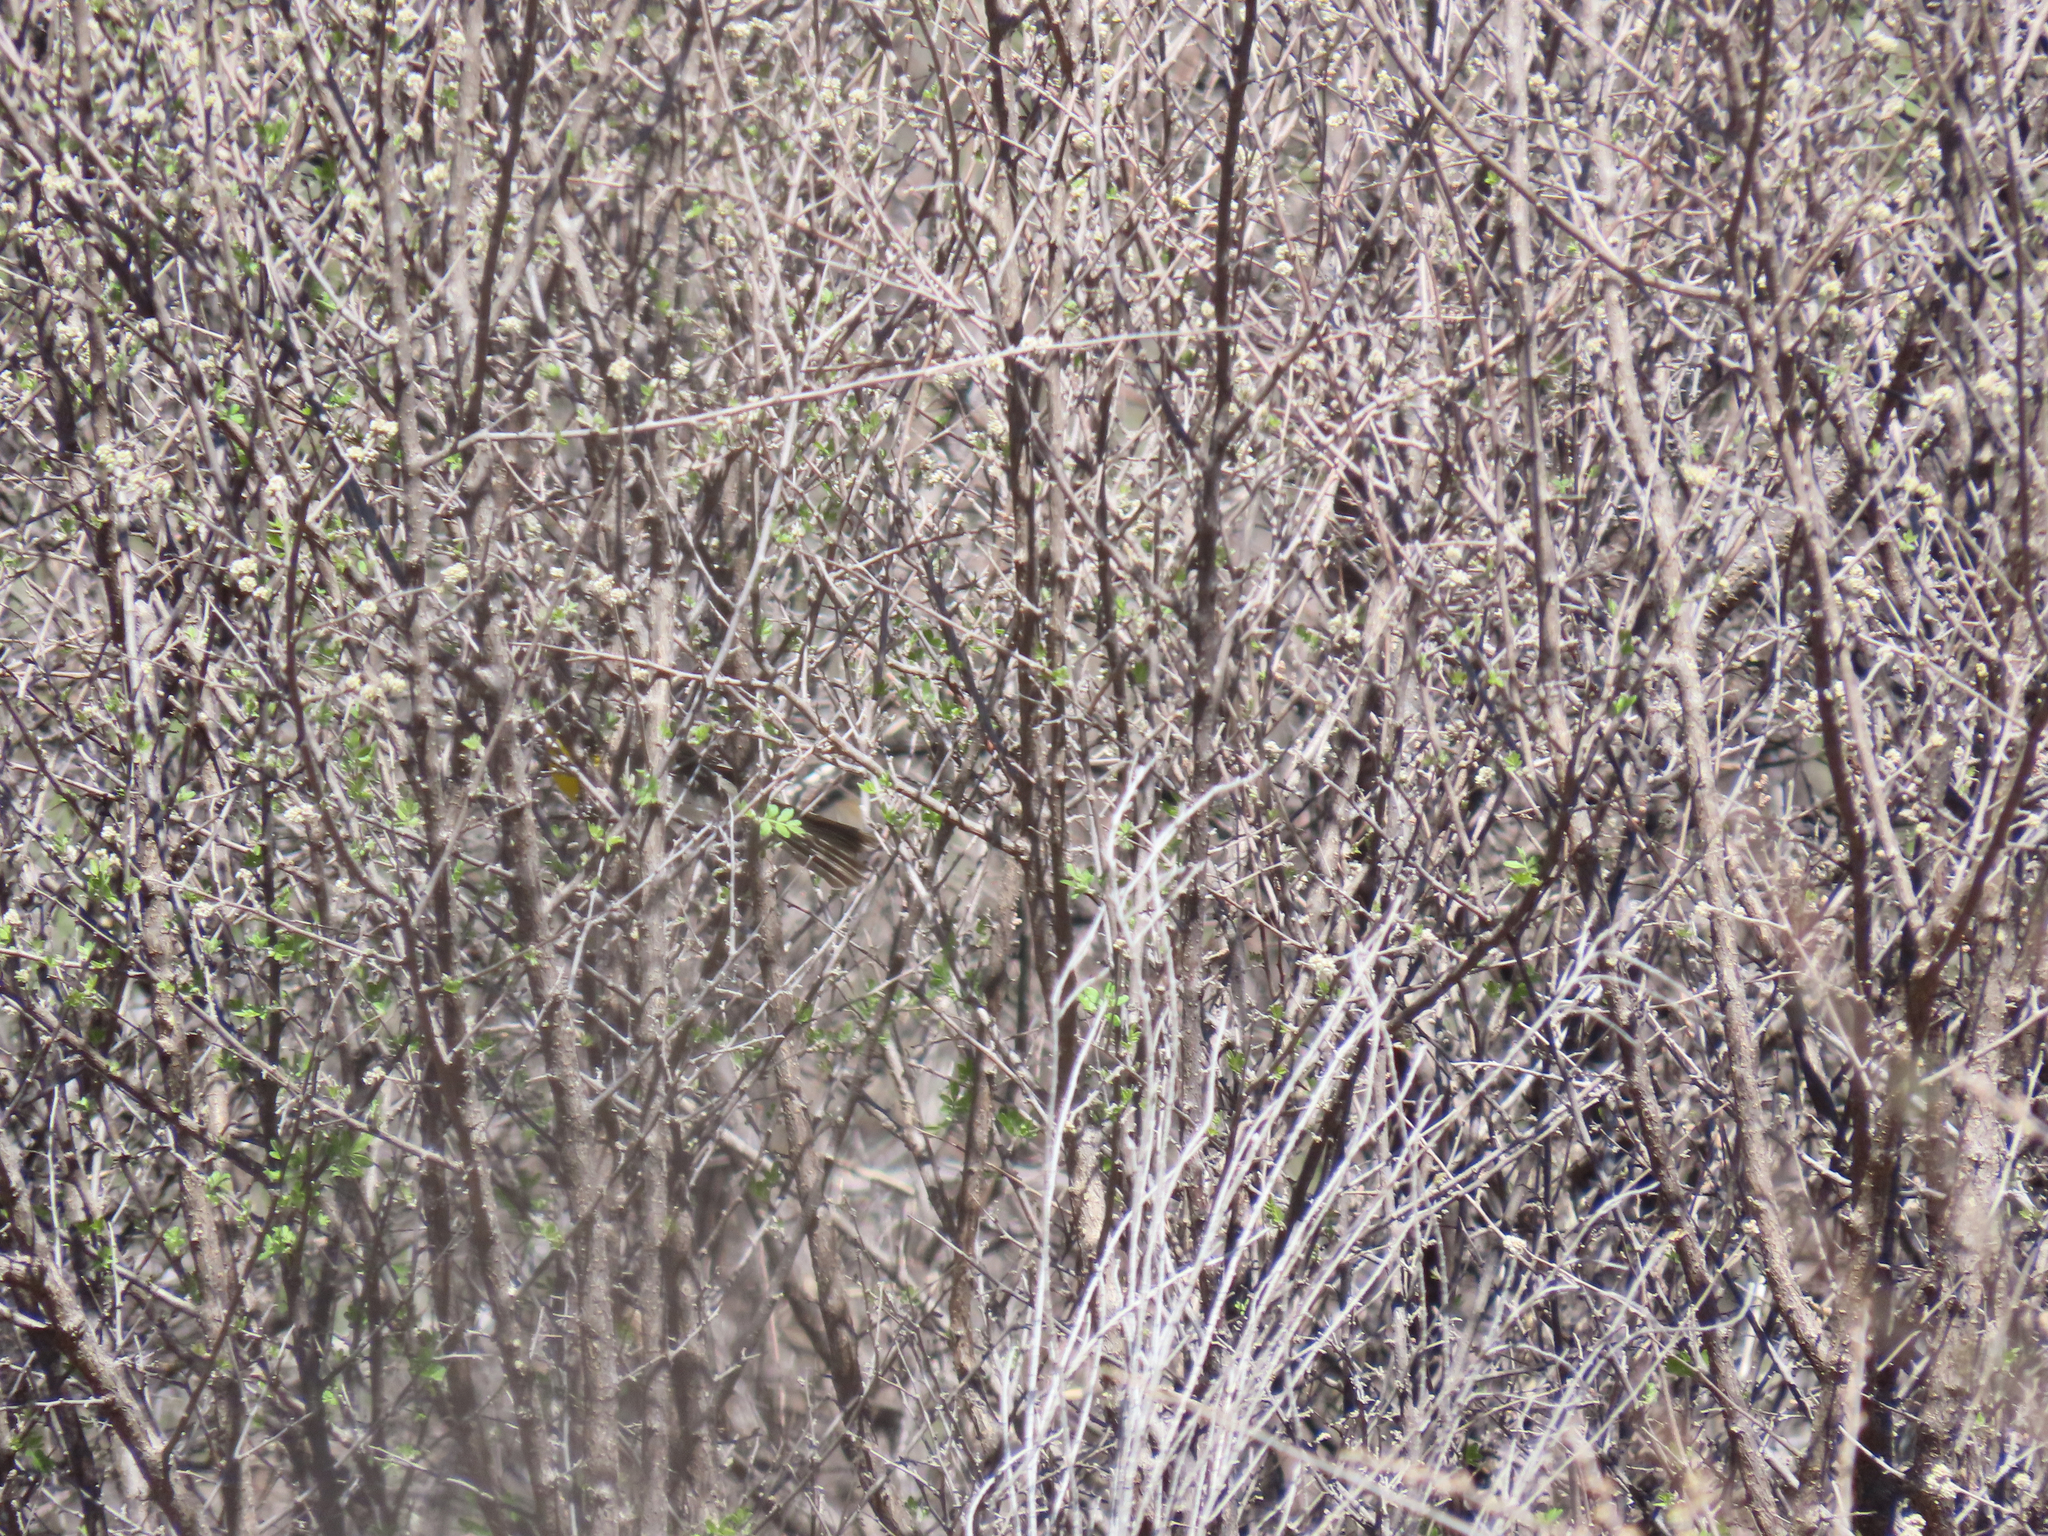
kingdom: Animalia
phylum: Chordata
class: Aves
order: Passeriformes
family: Parulidae
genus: Icteria
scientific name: Icteria virens
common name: Yellow-breasted chat
